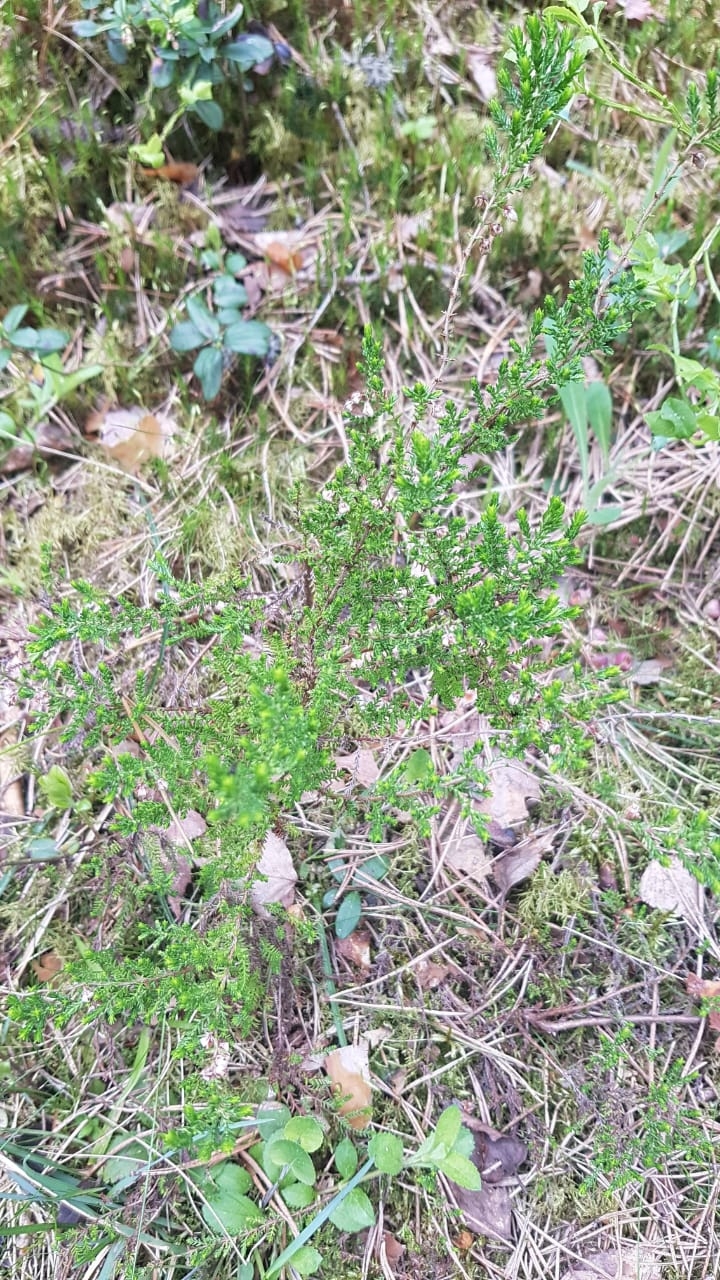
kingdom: Plantae
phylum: Tracheophyta
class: Magnoliopsida
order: Ericales
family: Ericaceae
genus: Calluna
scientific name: Calluna vulgaris
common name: Heather
